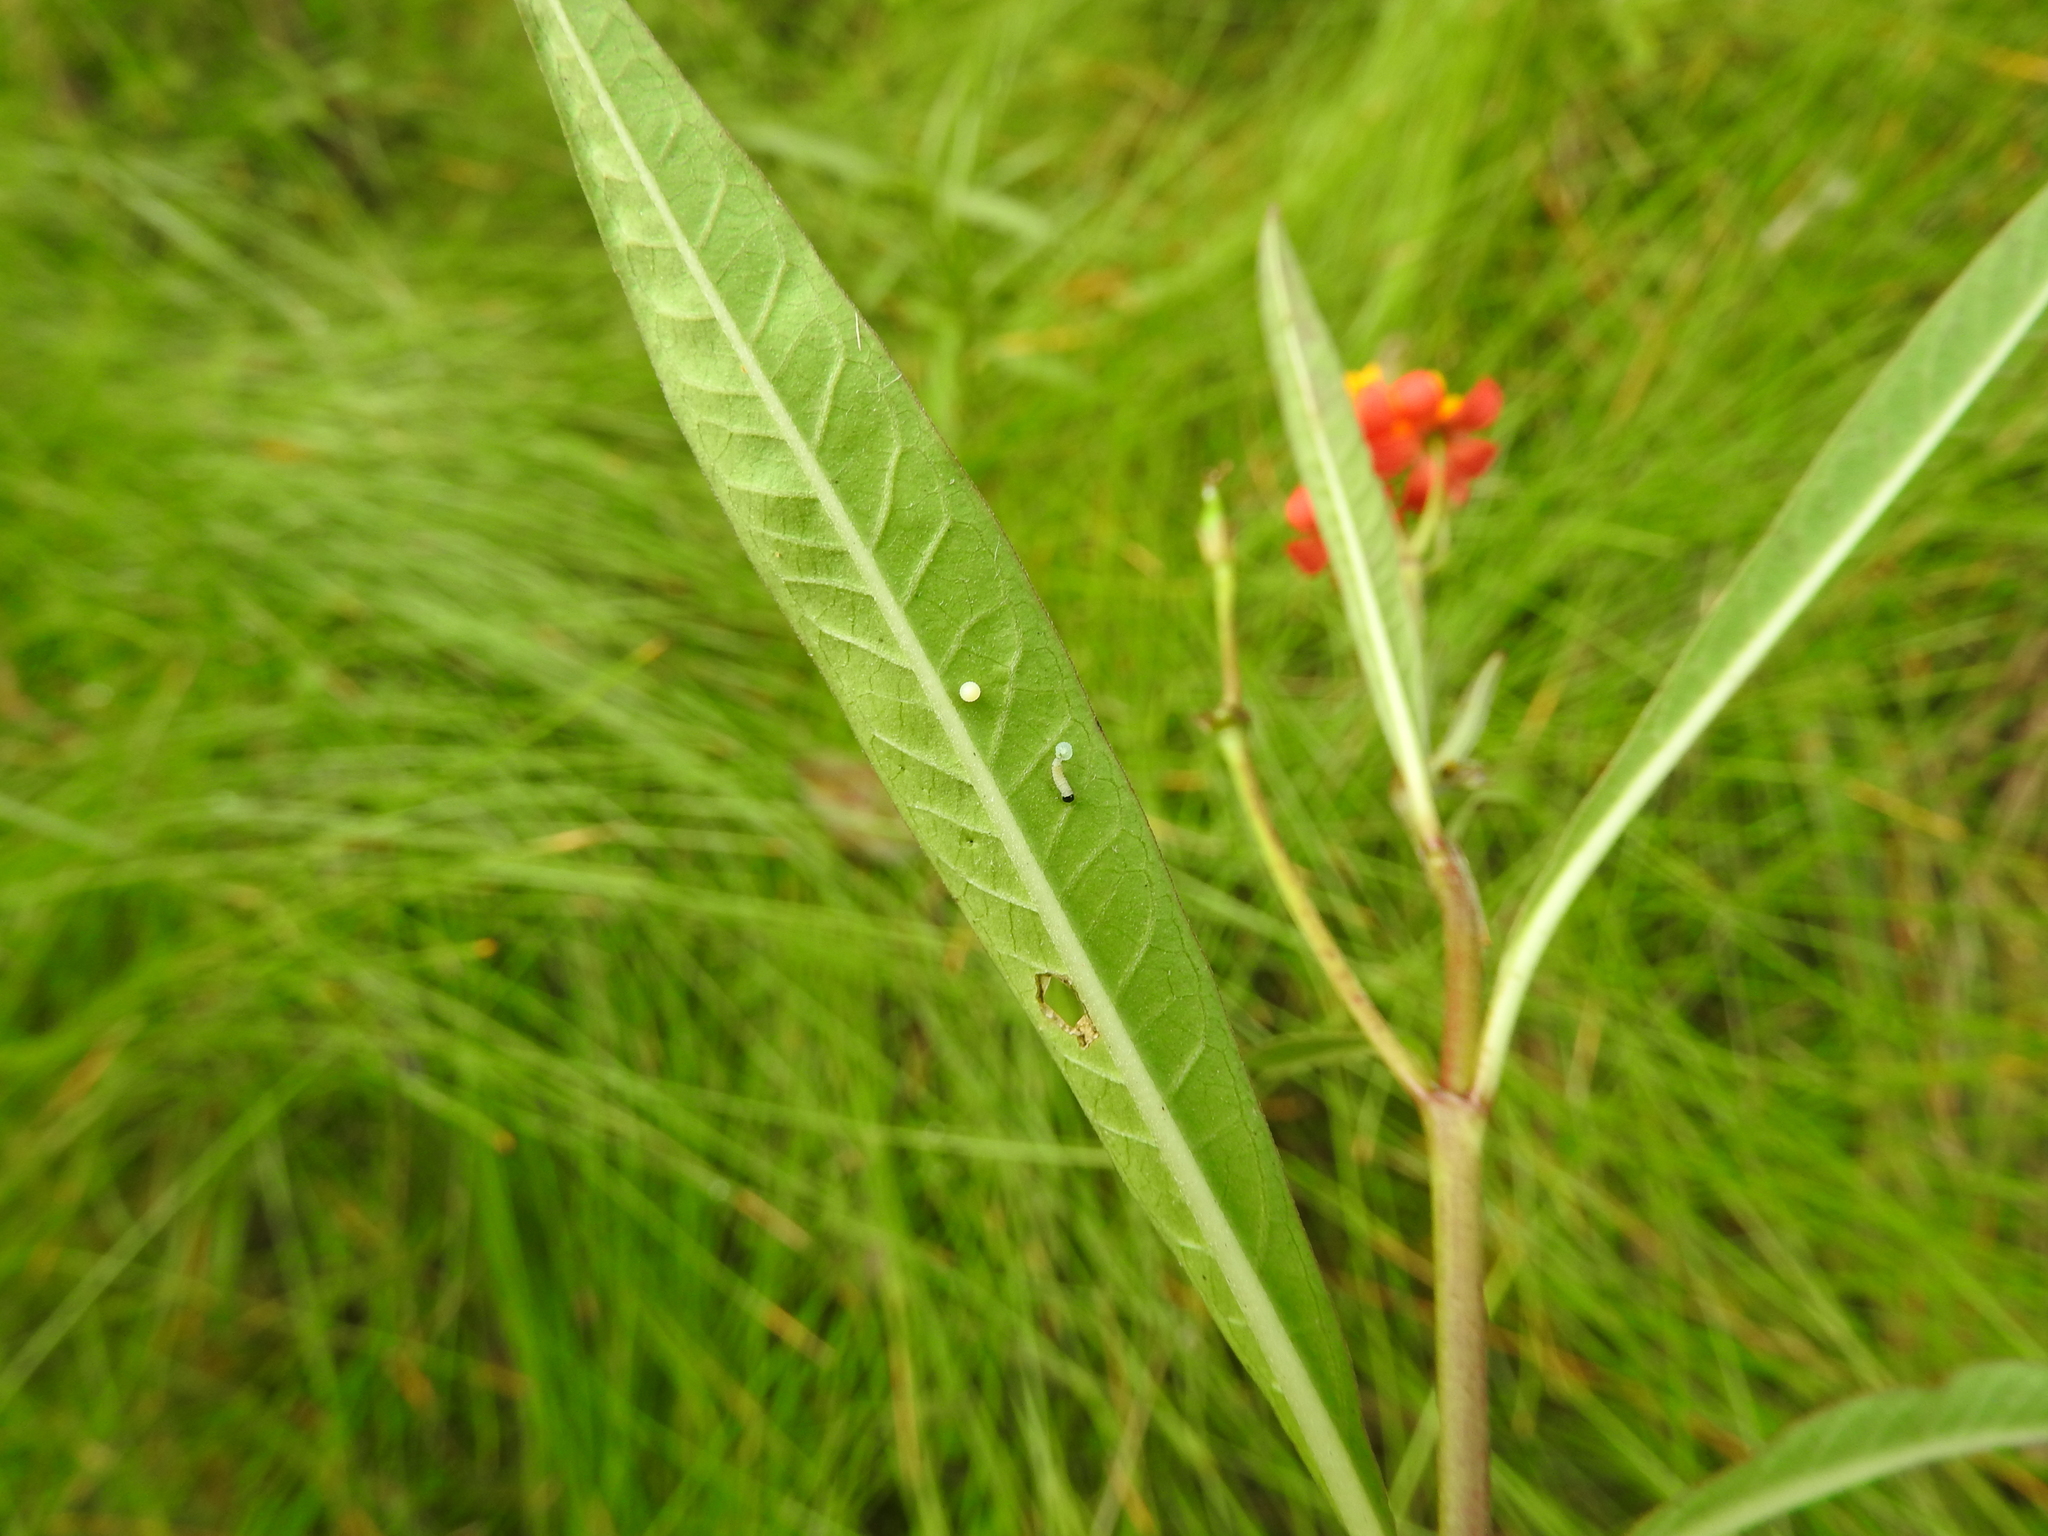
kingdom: Animalia
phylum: Arthropoda
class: Insecta
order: Lepidoptera
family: Nymphalidae
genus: Danaus
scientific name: Danaus plexippus
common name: Monarch
